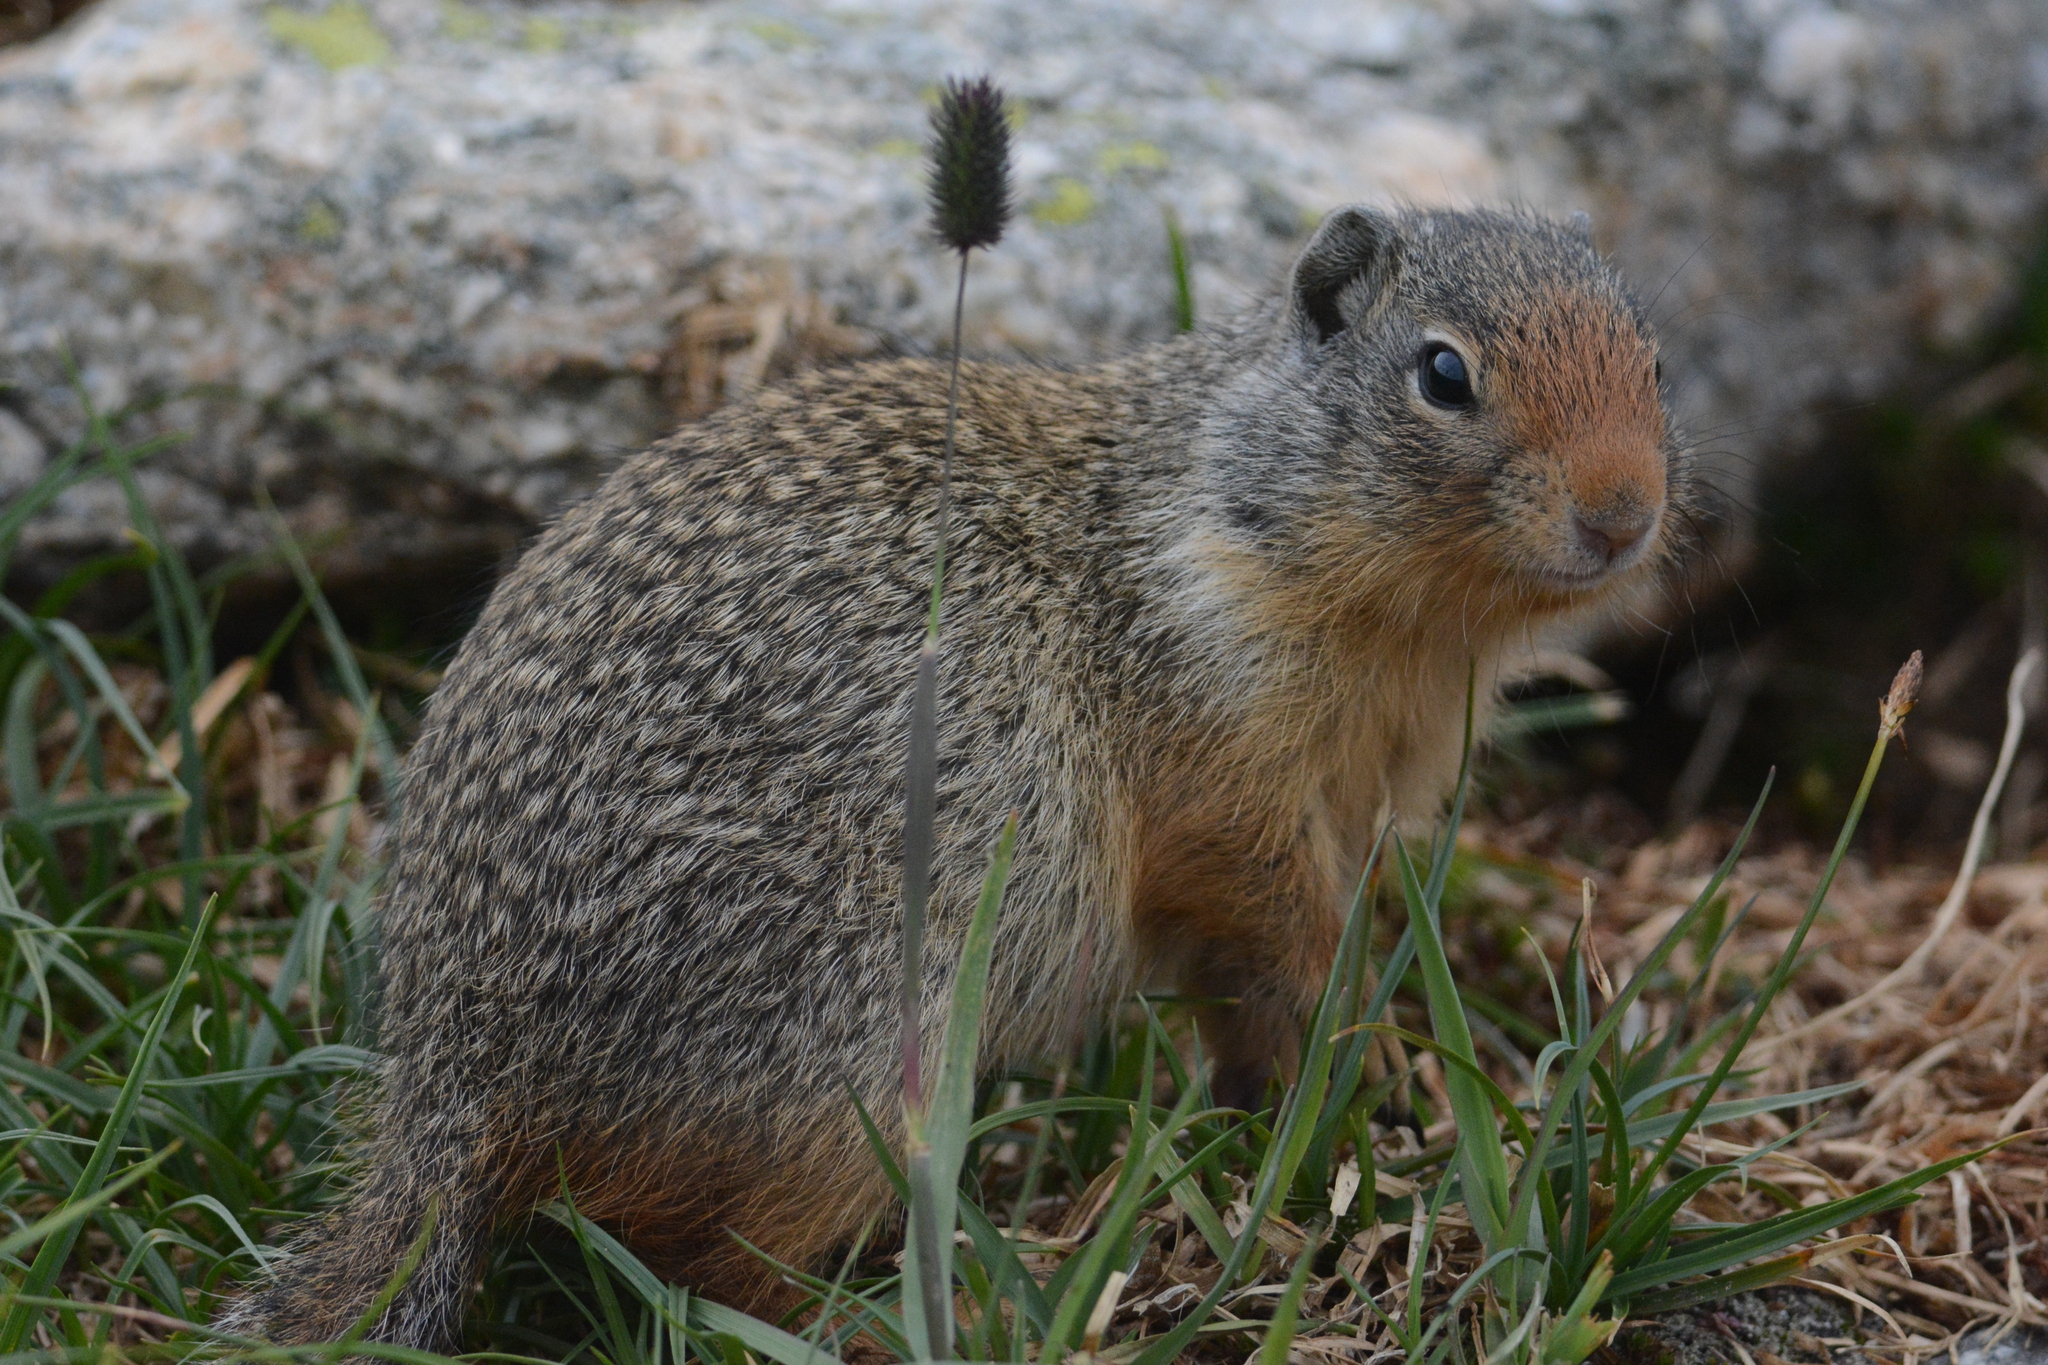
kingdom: Animalia
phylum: Chordata
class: Mammalia
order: Rodentia
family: Sciuridae
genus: Urocitellus
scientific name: Urocitellus columbianus
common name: Columbian ground squirrel
